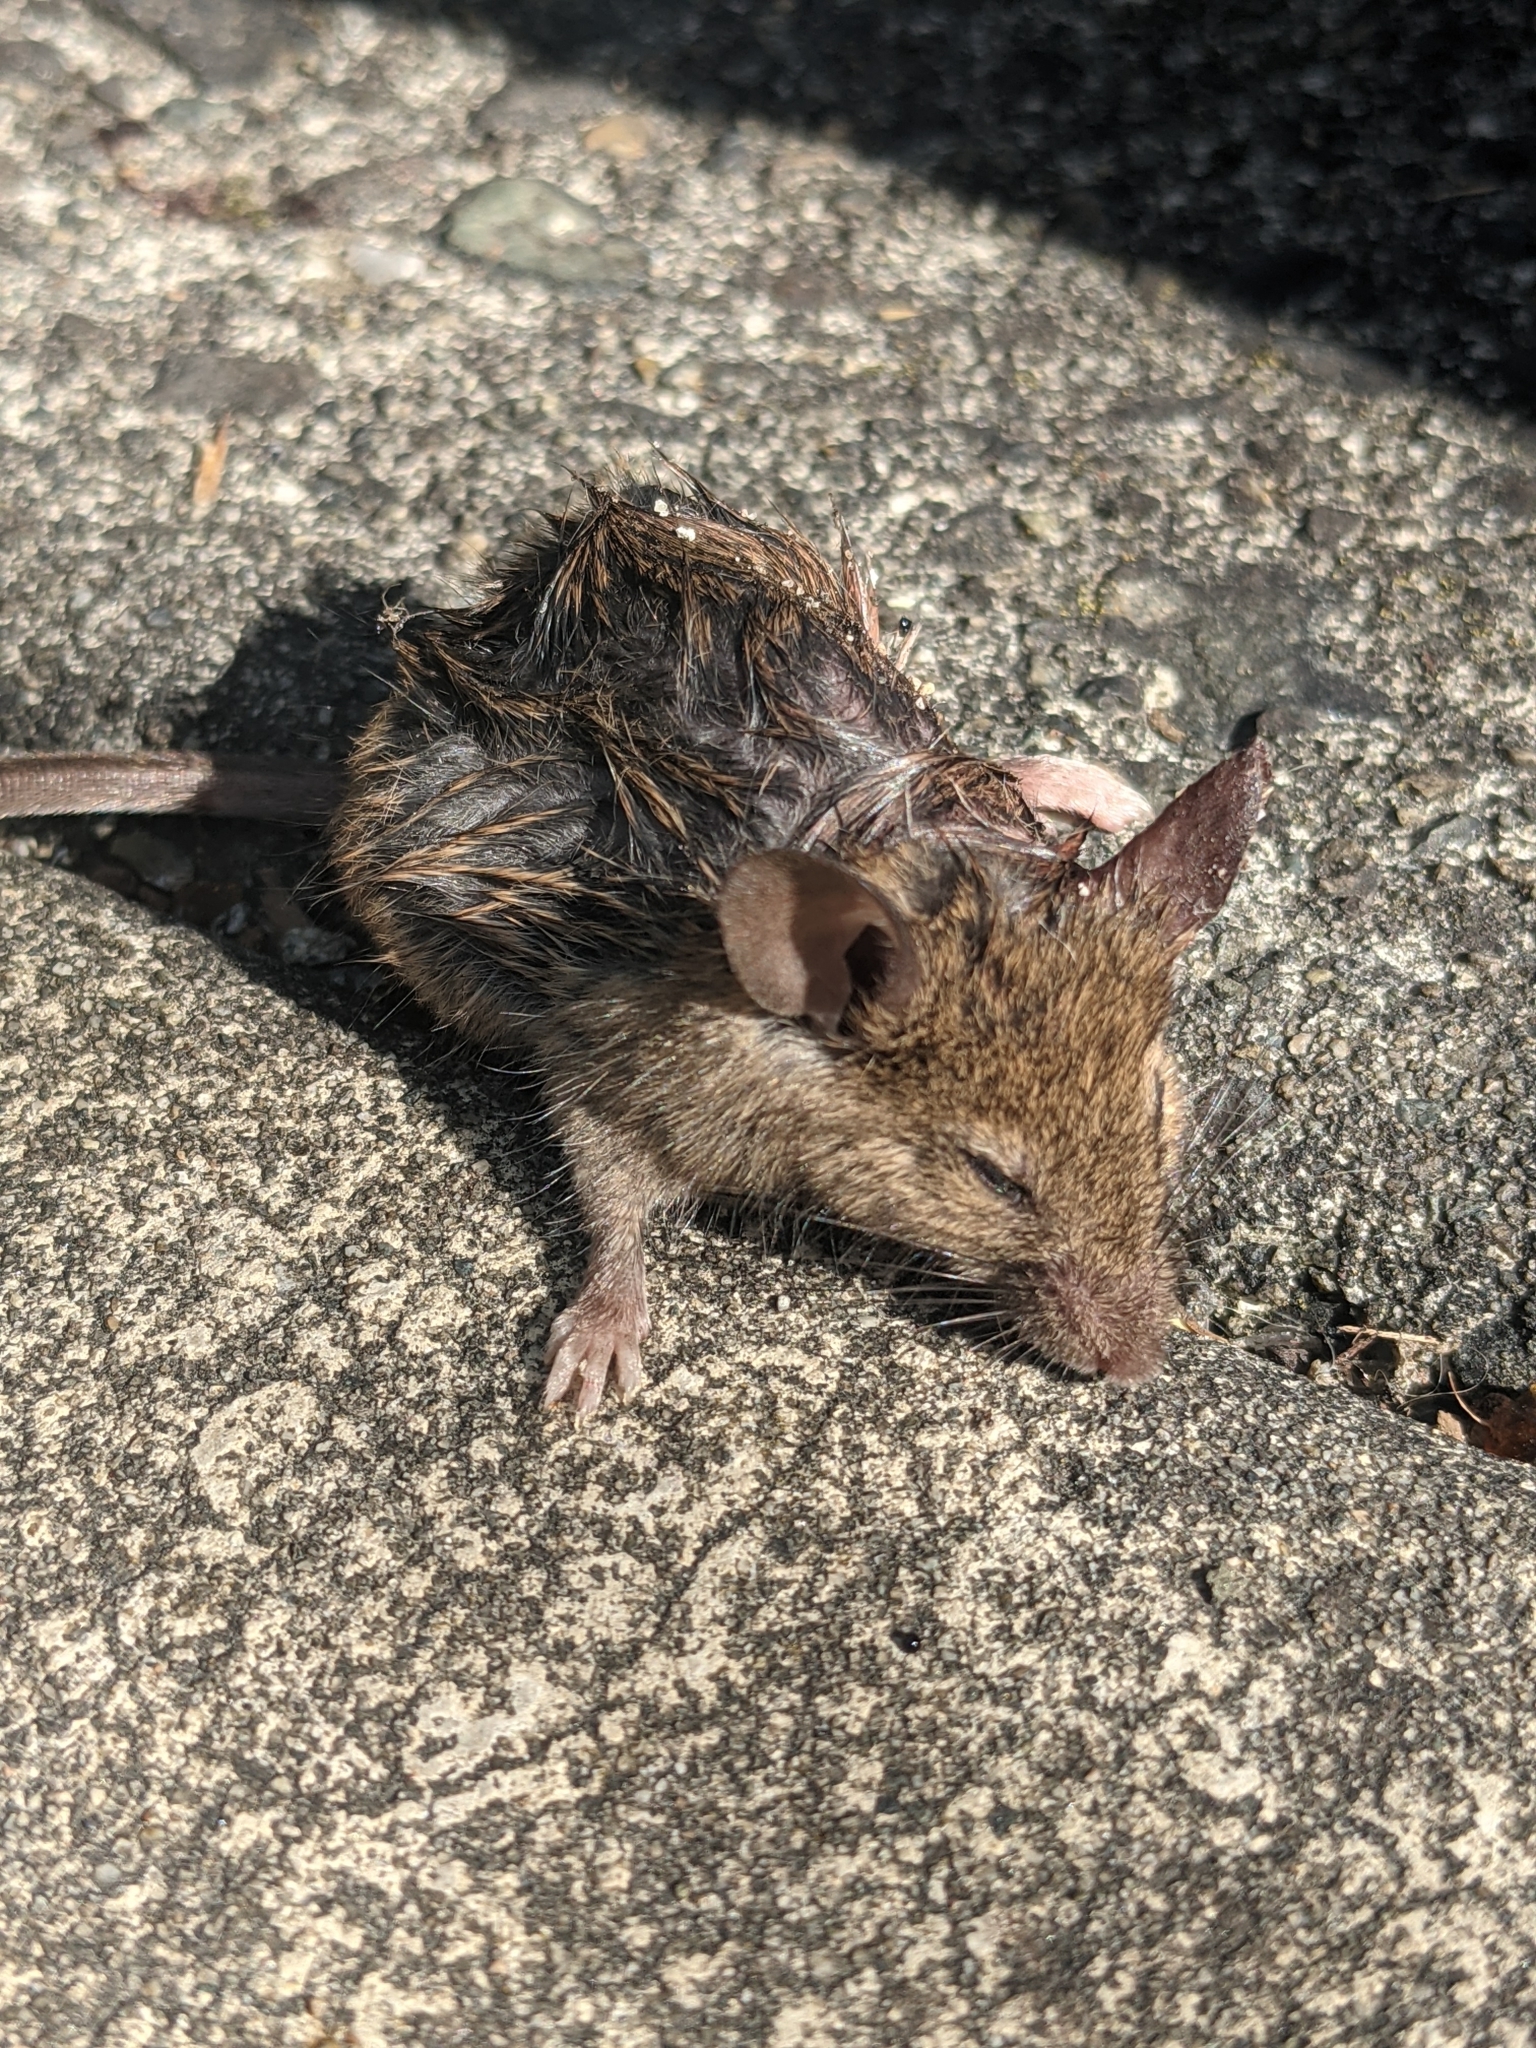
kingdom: Animalia
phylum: Chordata
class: Mammalia
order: Rodentia
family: Muridae
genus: Mus
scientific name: Mus musculus
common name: House mouse
